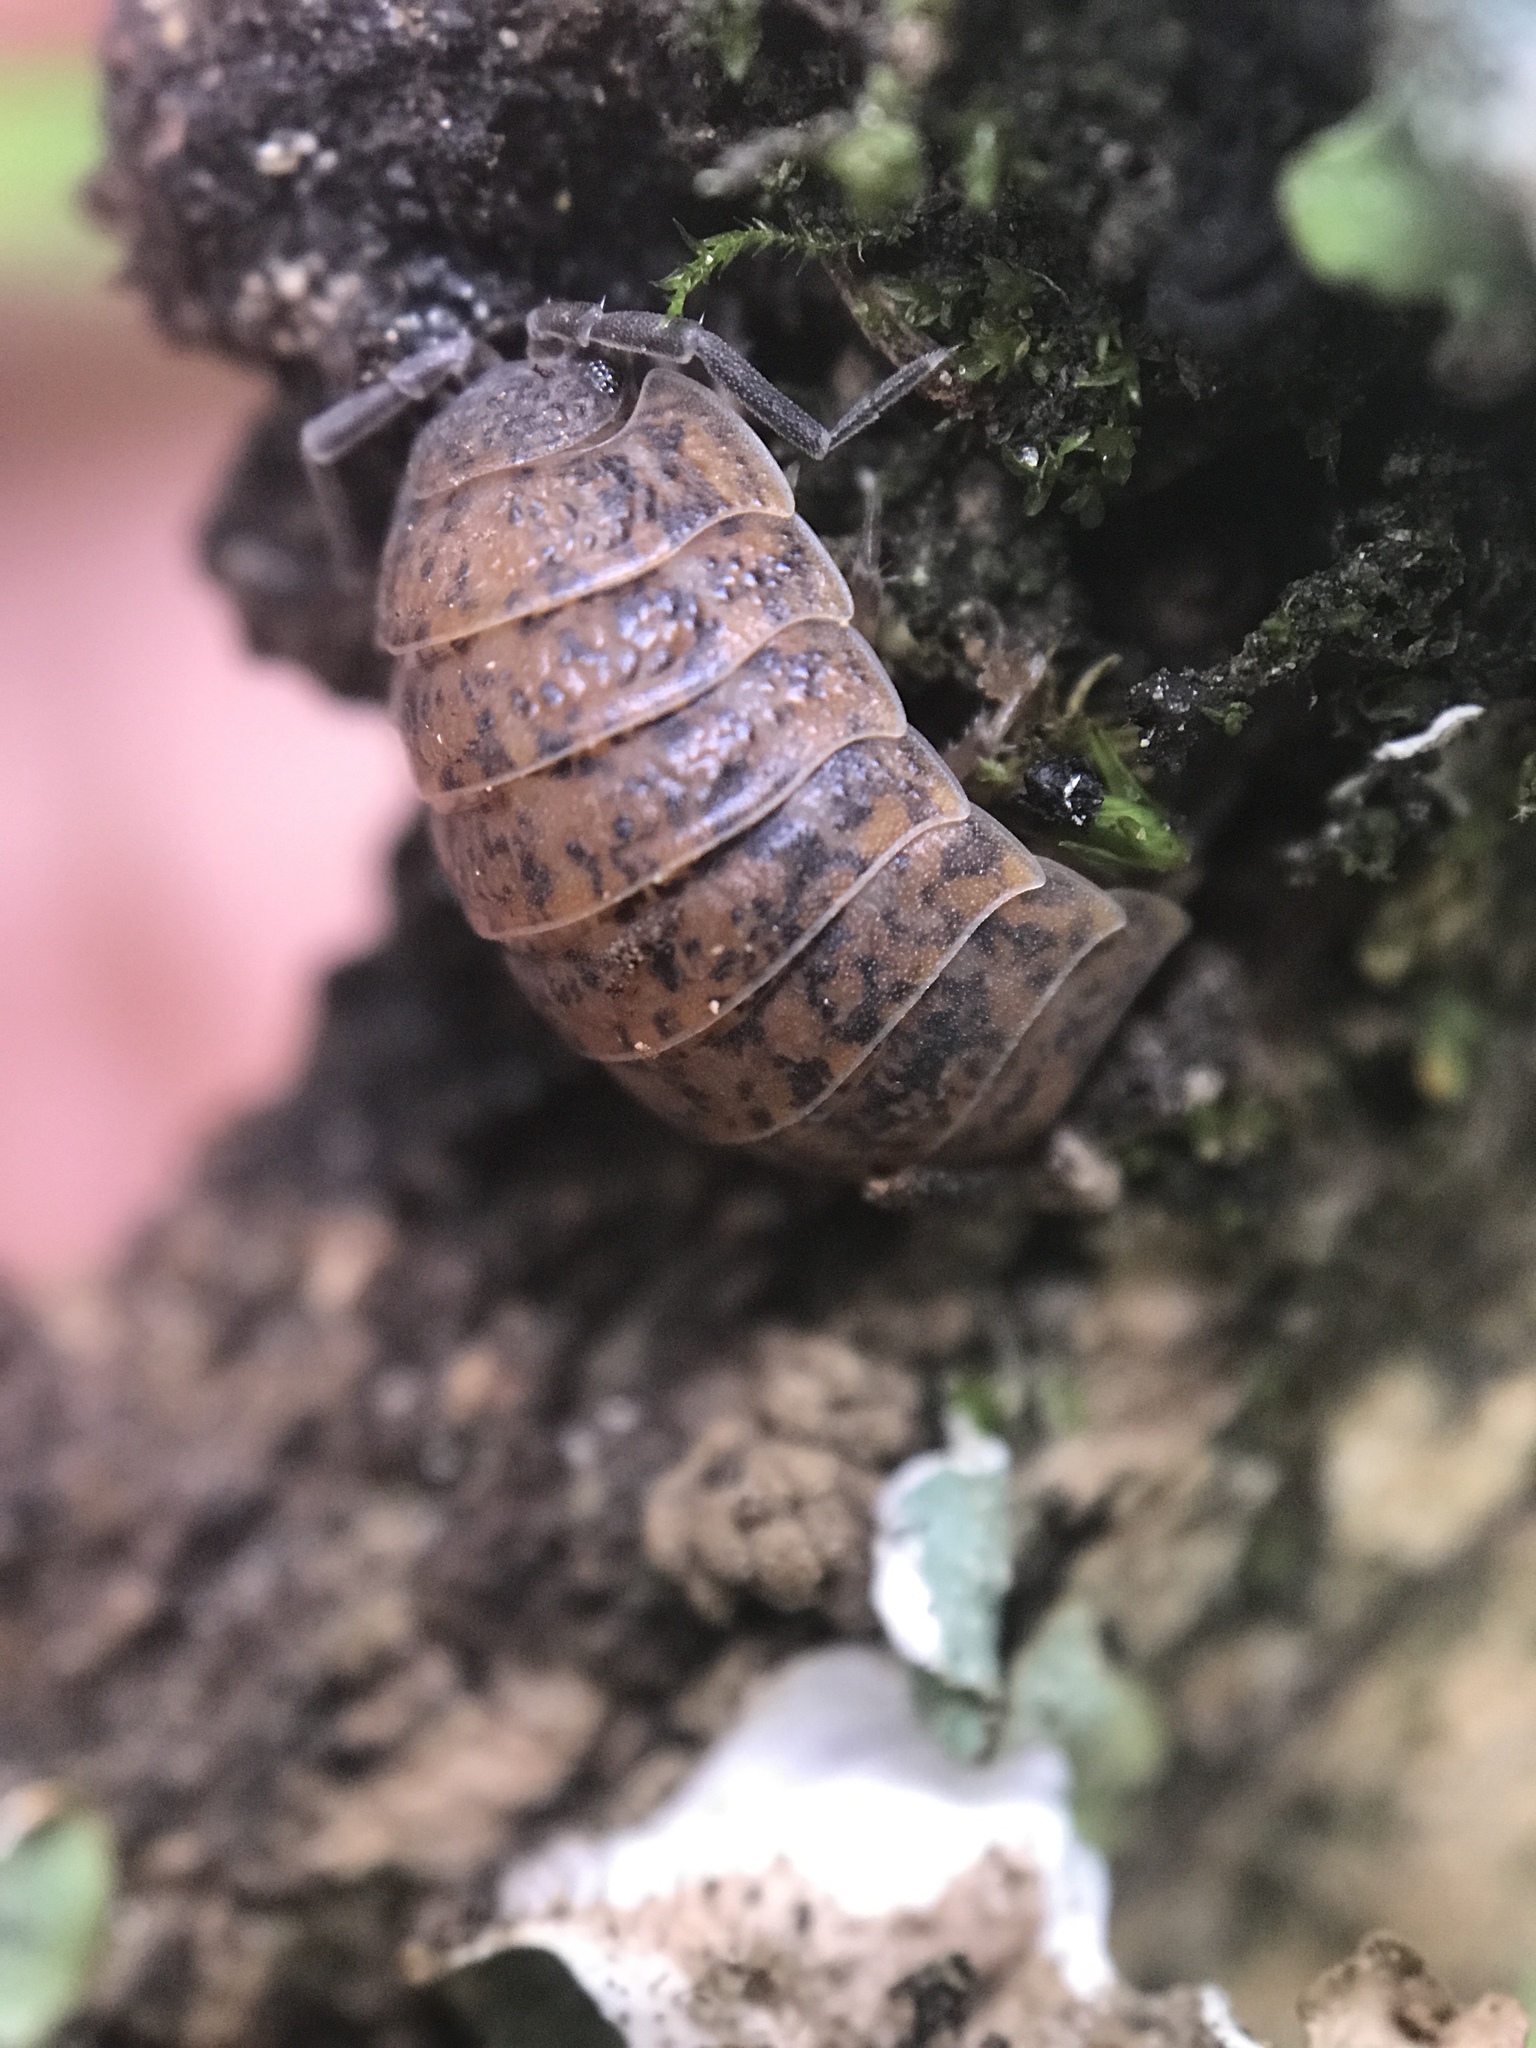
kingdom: Animalia
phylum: Arthropoda
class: Malacostraca
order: Isopoda
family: Trachelipodidae
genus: Trachelipus
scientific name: Trachelipus rathkii
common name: Isopod
